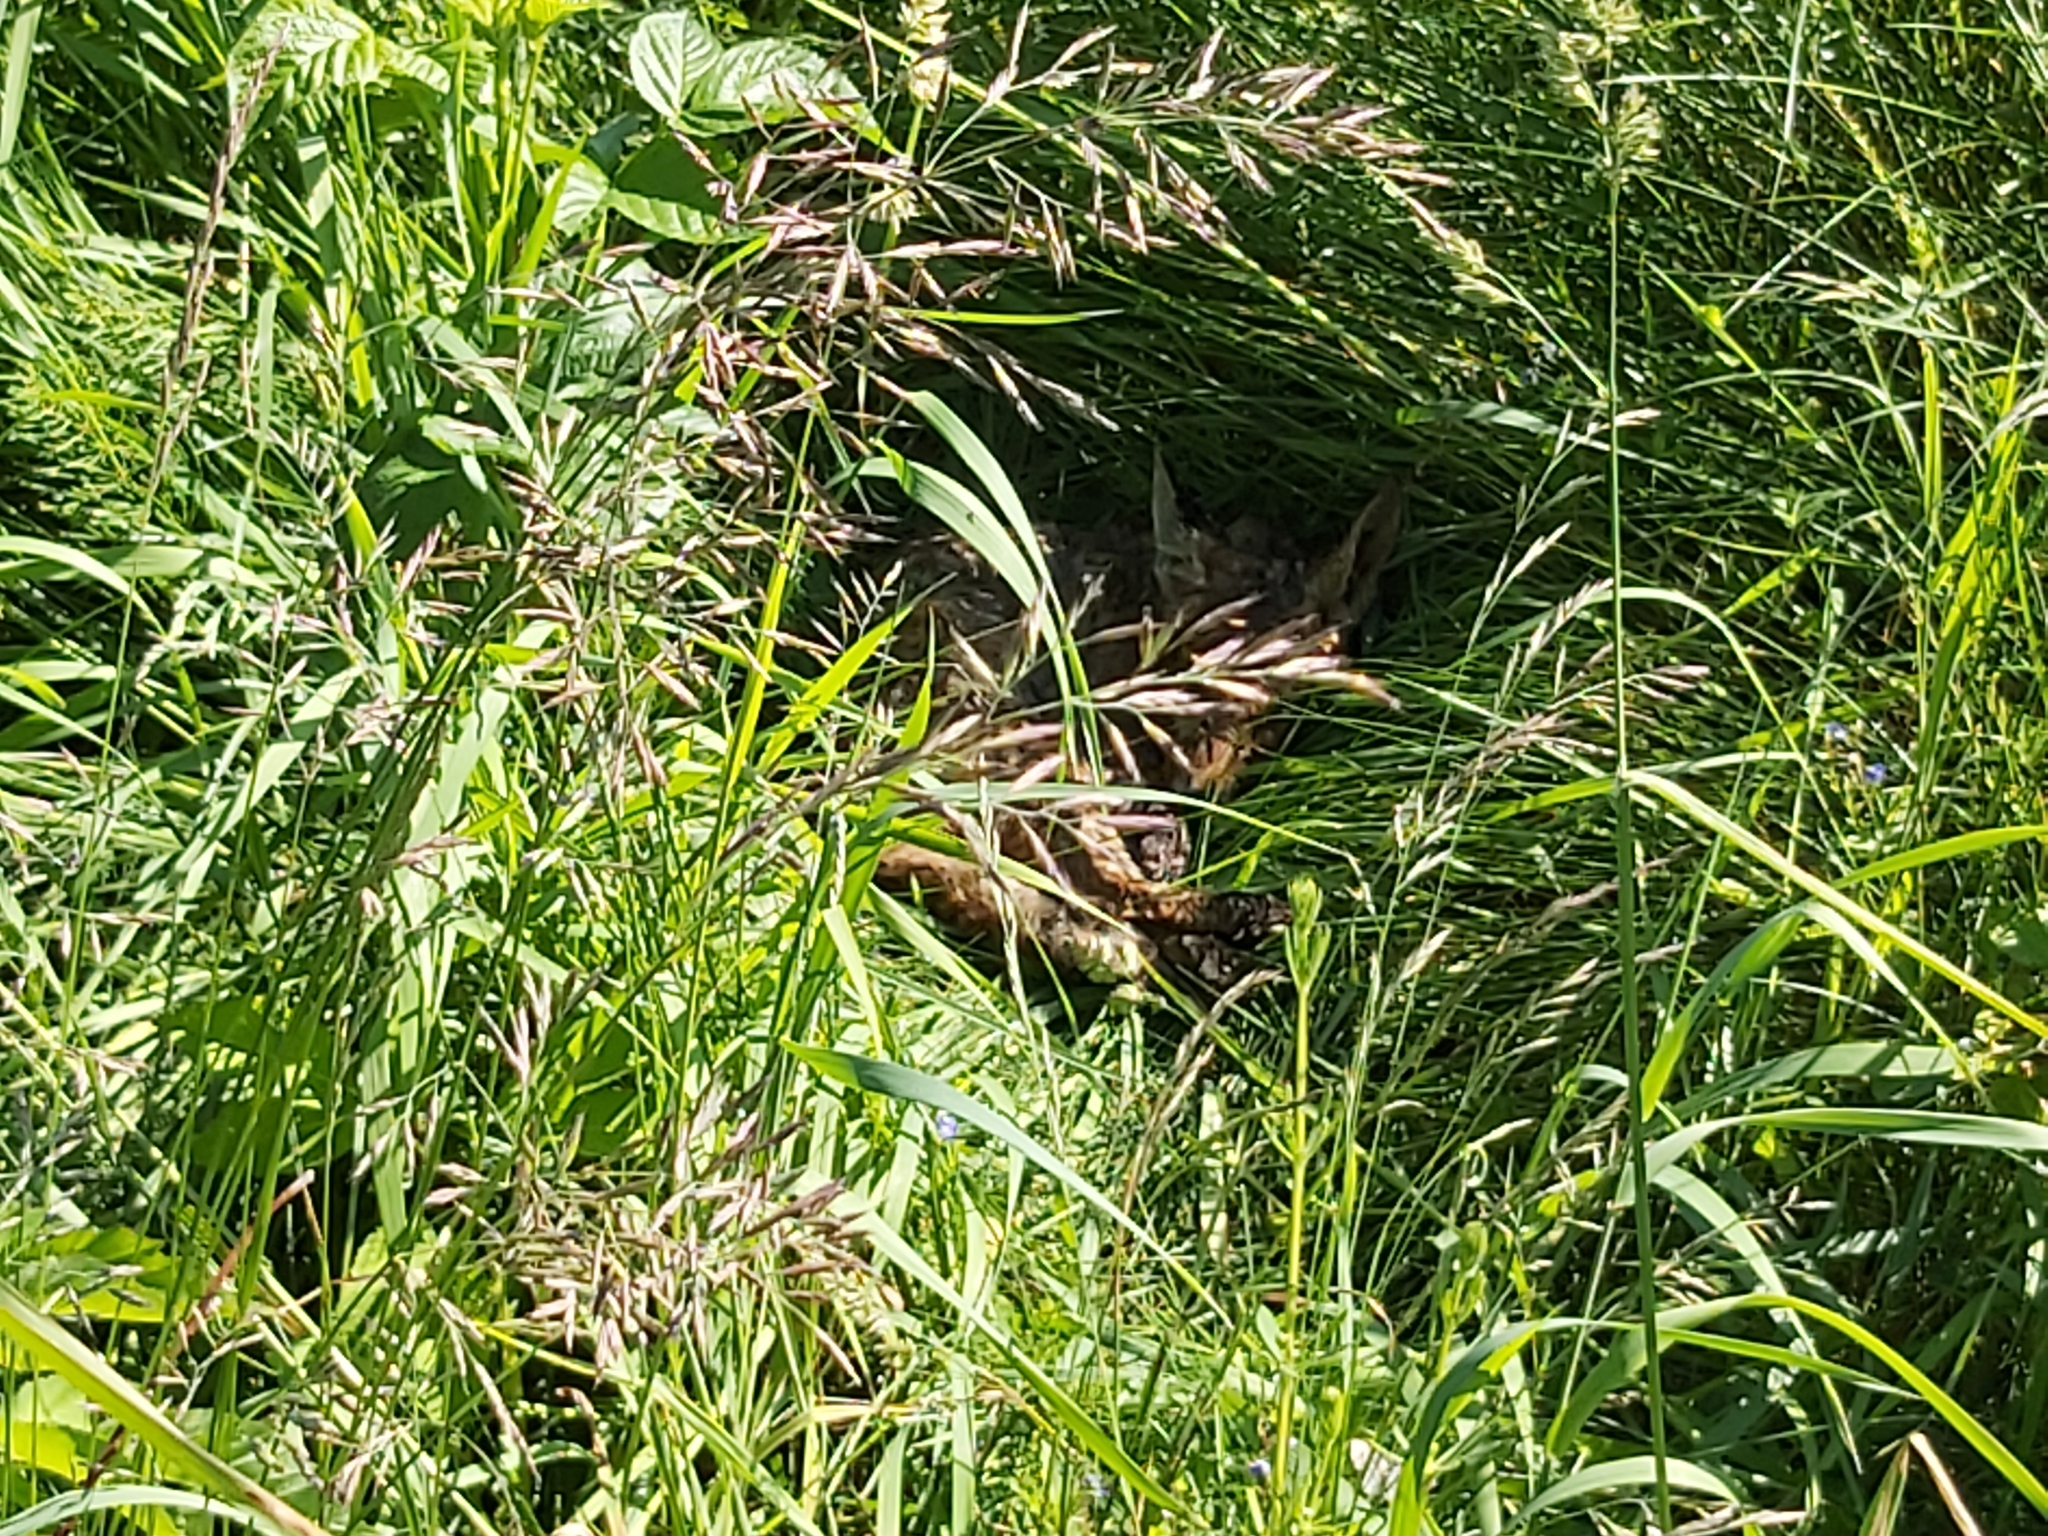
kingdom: Animalia
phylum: Chordata
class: Mammalia
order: Carnivora
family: Canidae
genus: Vulpes
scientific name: Vulpes vulpes
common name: Red fox
